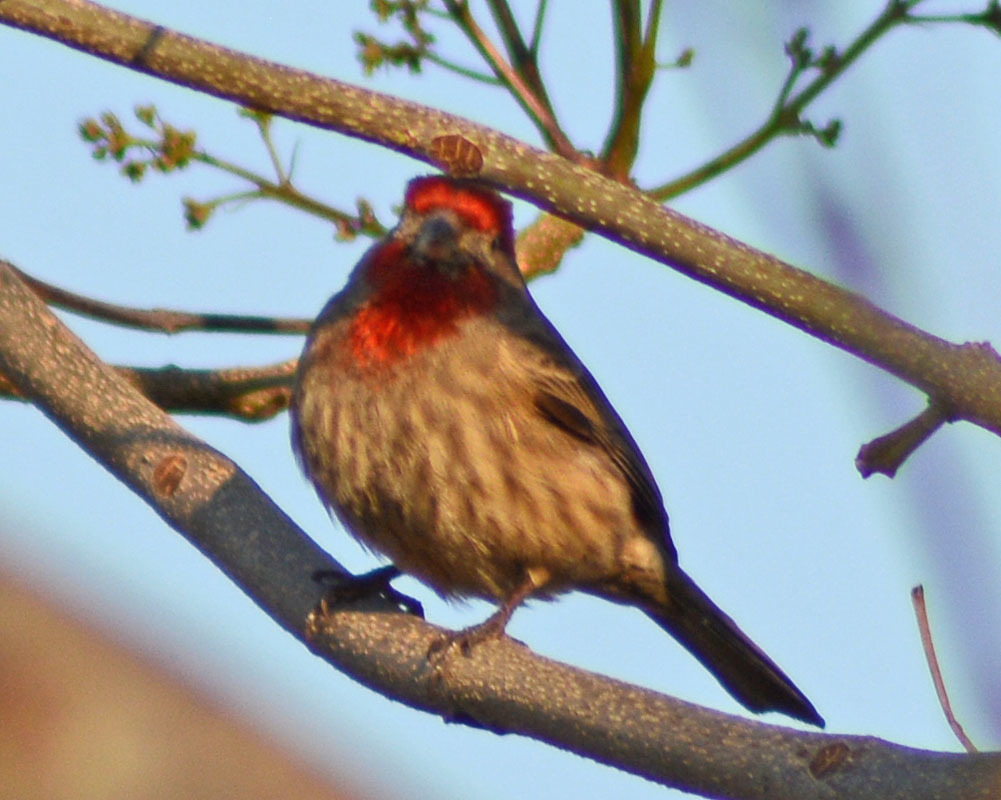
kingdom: Animalia
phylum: Chordata
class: Aves
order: Passeriformes
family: Fringillidae
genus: Haemorhous
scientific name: Haemorhous mexicanus
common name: House finch
